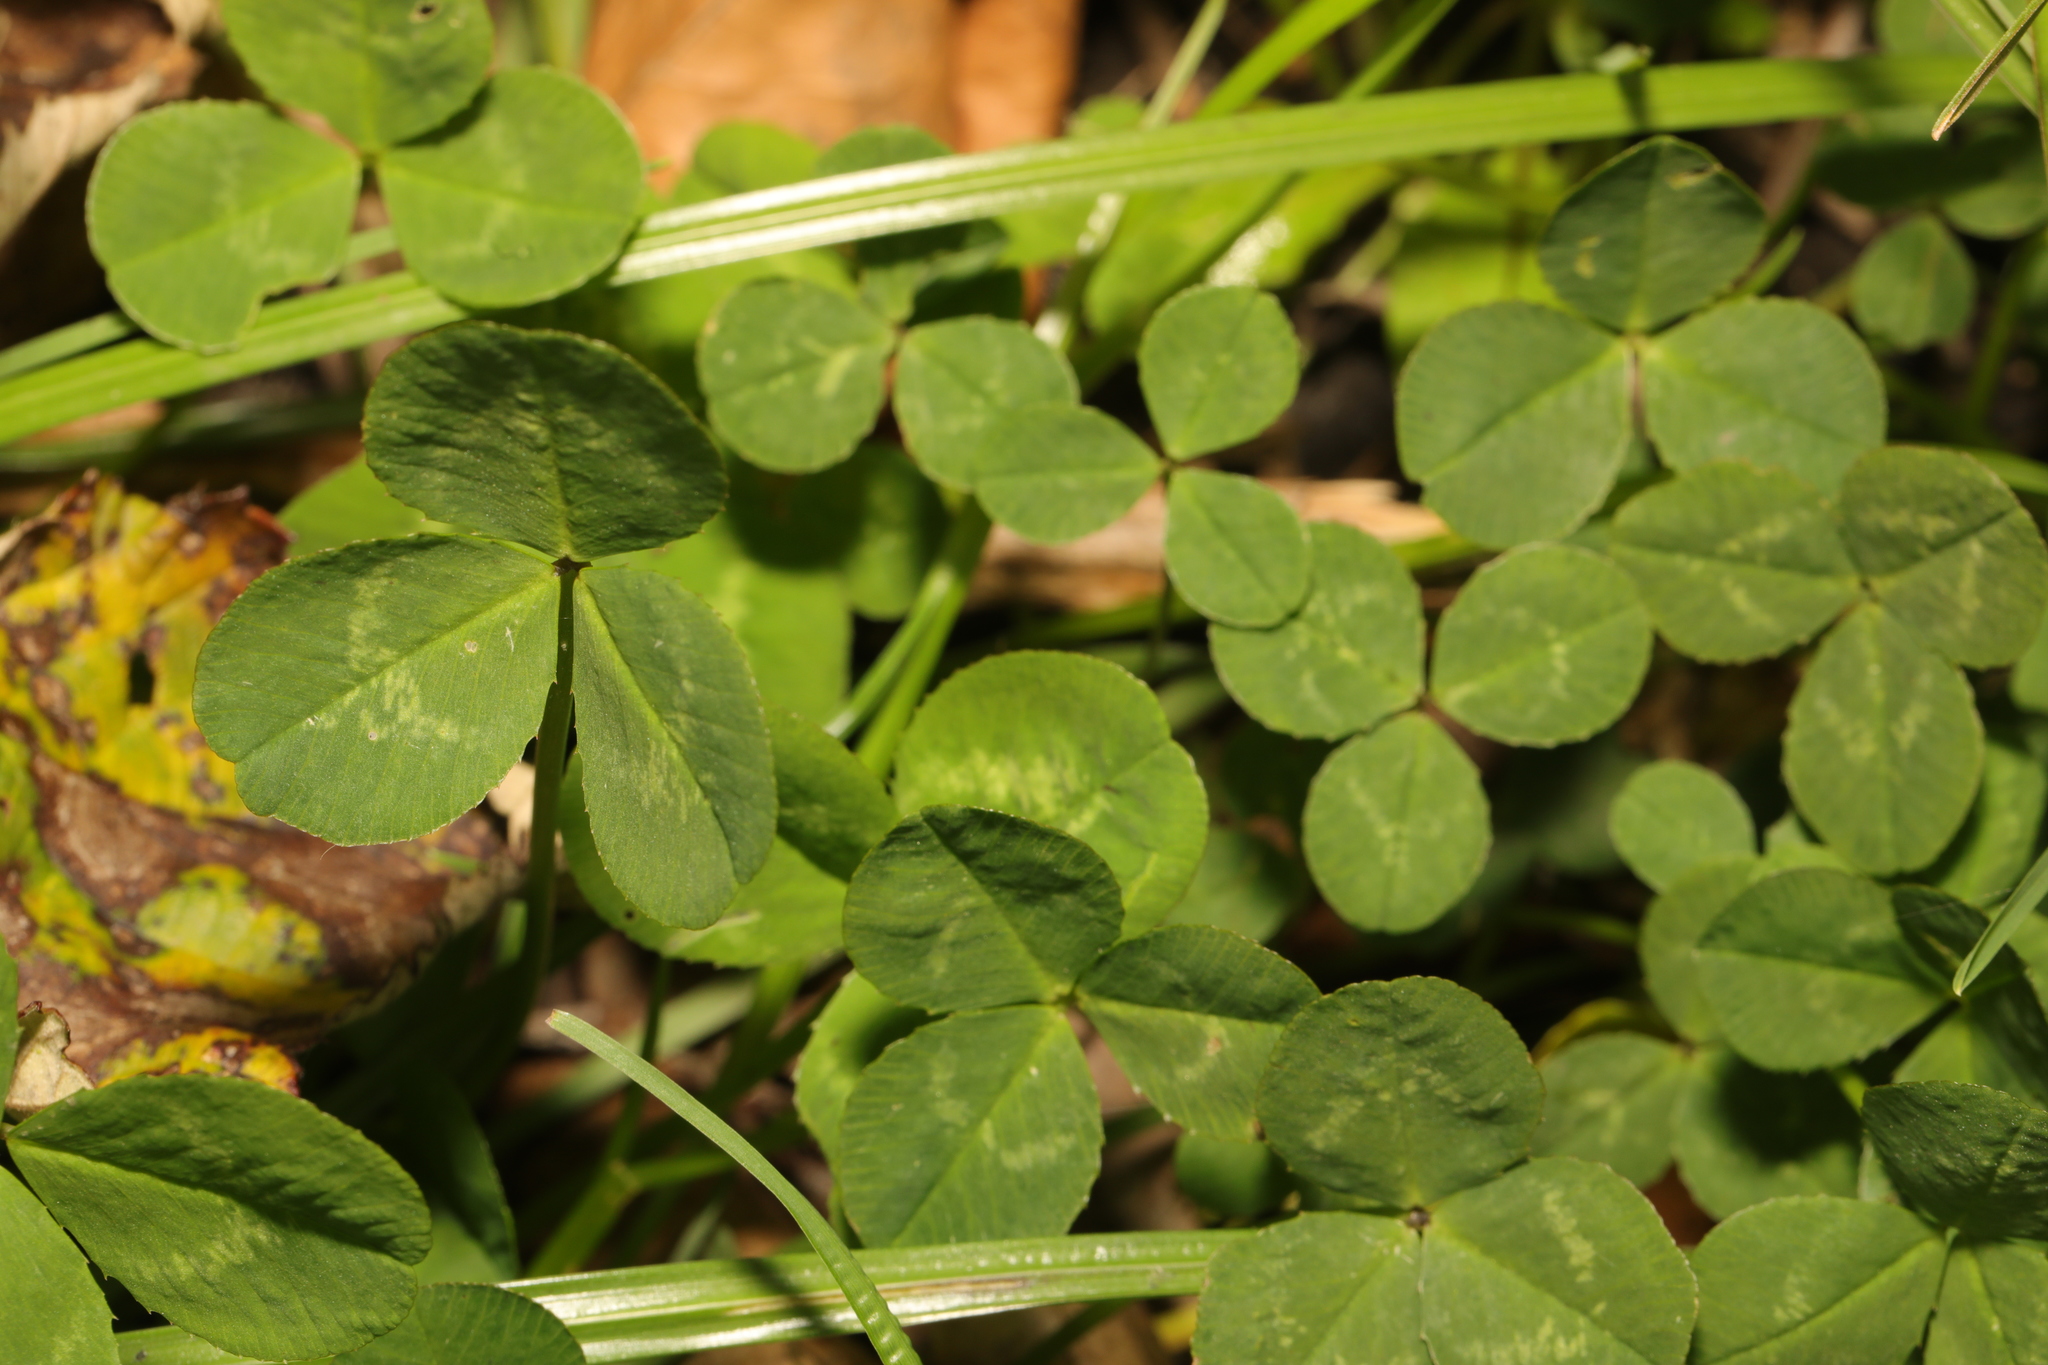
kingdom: Plantae
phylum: Tracheophyta
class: Magnoliopsida
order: Fabales
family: Fabaceae
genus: Trifolium
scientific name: Trifolium repens
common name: White clover
